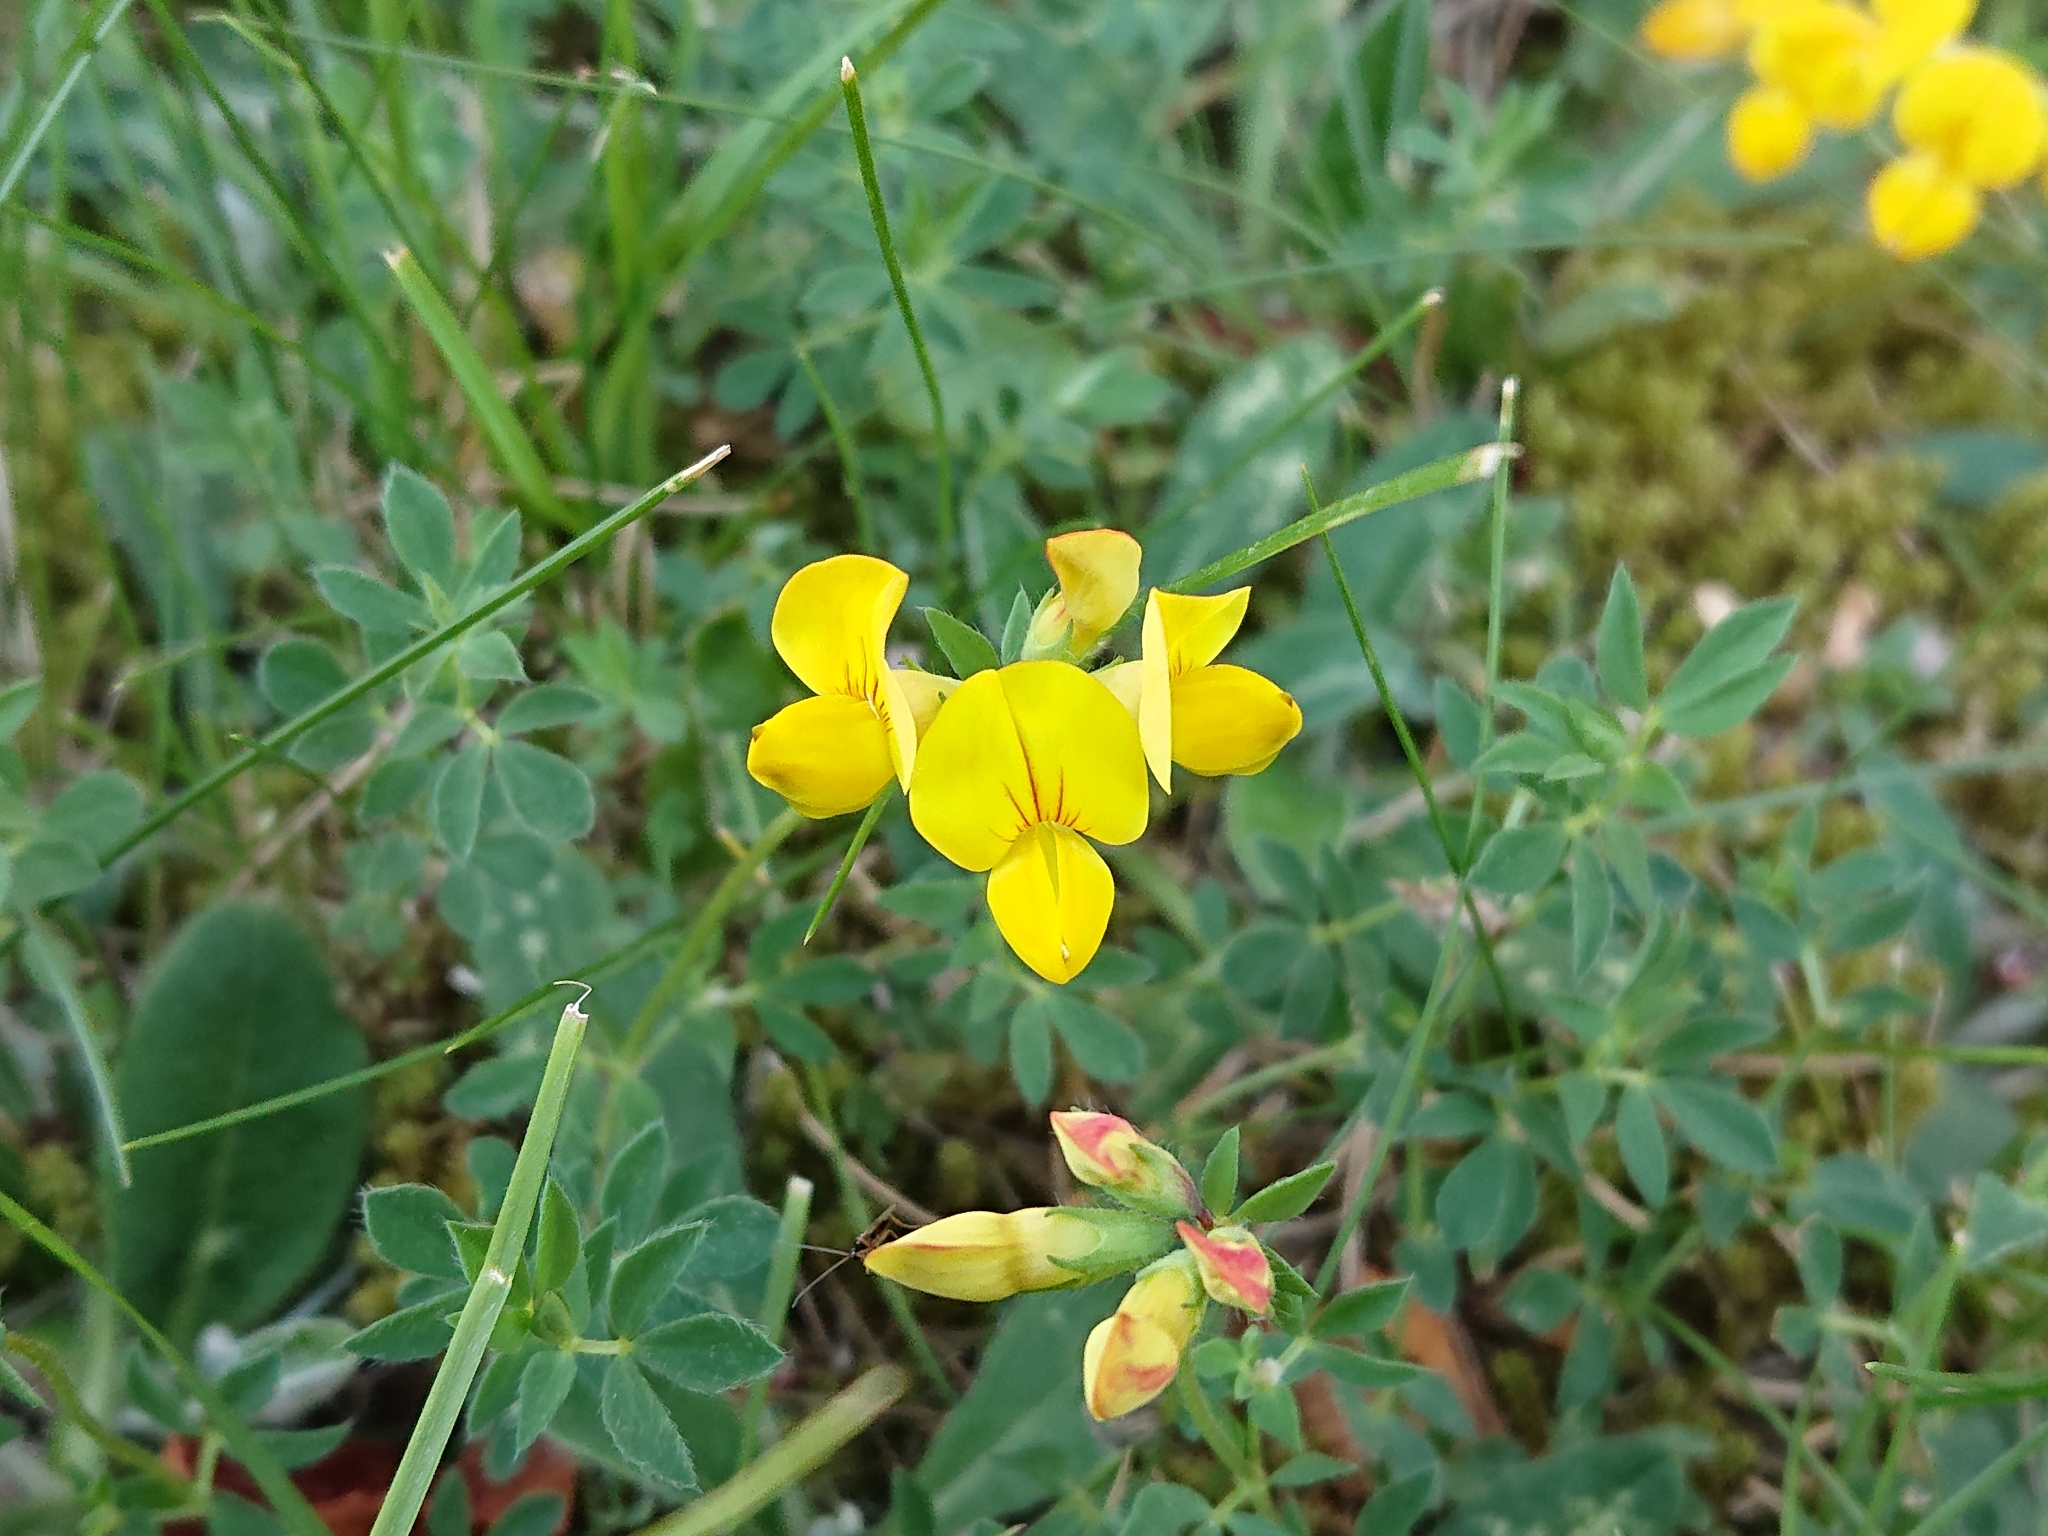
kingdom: Plantae
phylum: Tracheophyta
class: Magnoliopsida
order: Fabales
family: Fabaceae
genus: Lotus
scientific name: Lotus corniculatus
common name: Common bird's-foot-trefoil
